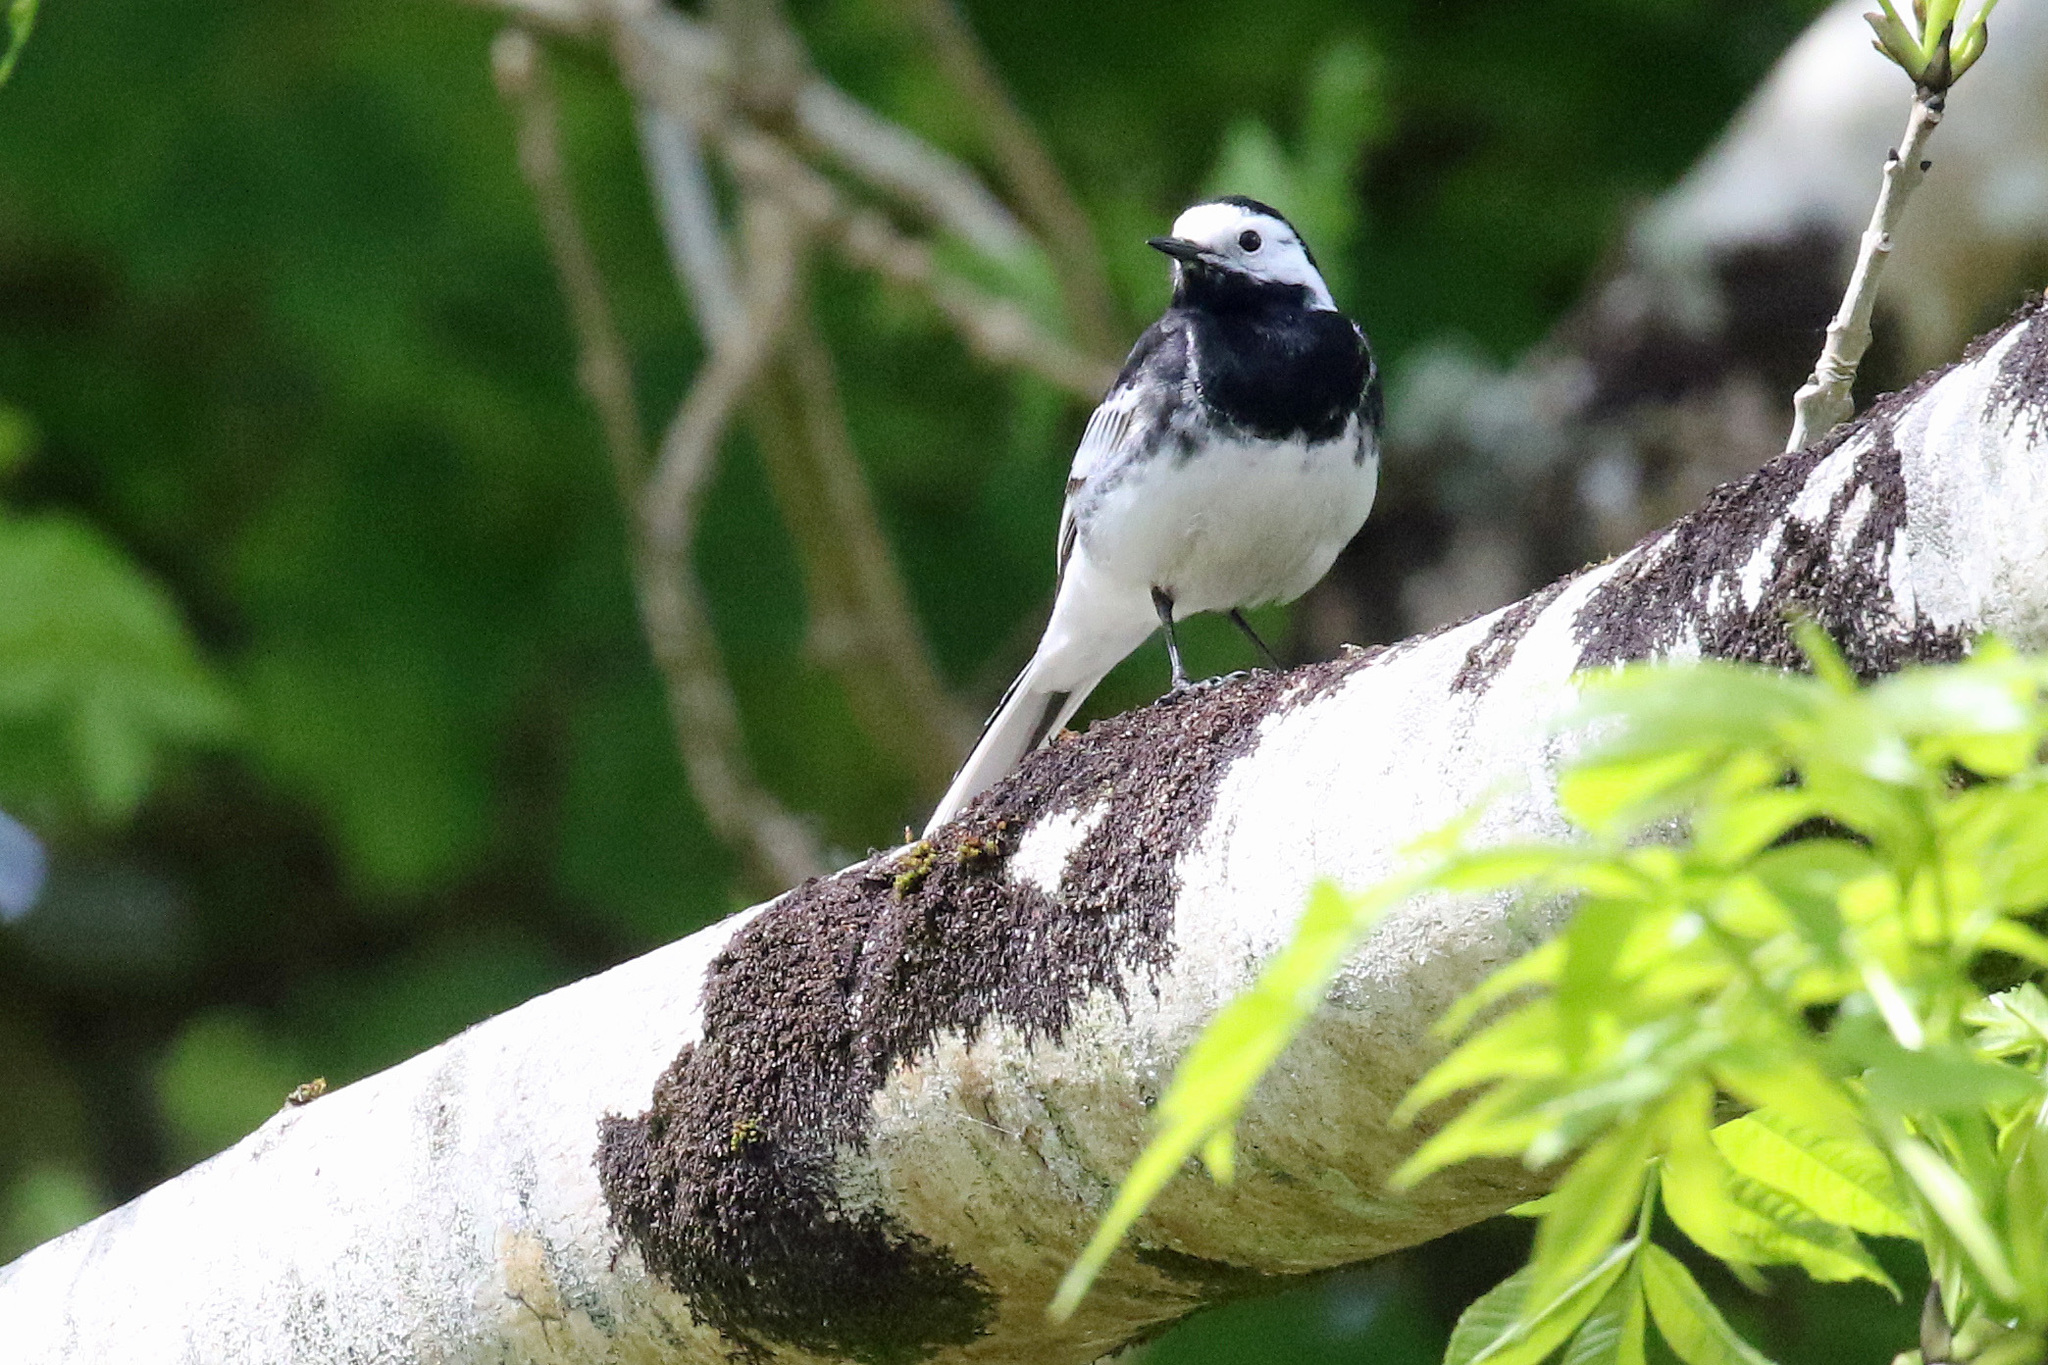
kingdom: Animalia
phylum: Chordata
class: Aves
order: Passeriformes
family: Motacillidae
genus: Motacilla
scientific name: Motacilla alba
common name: White wagtail
